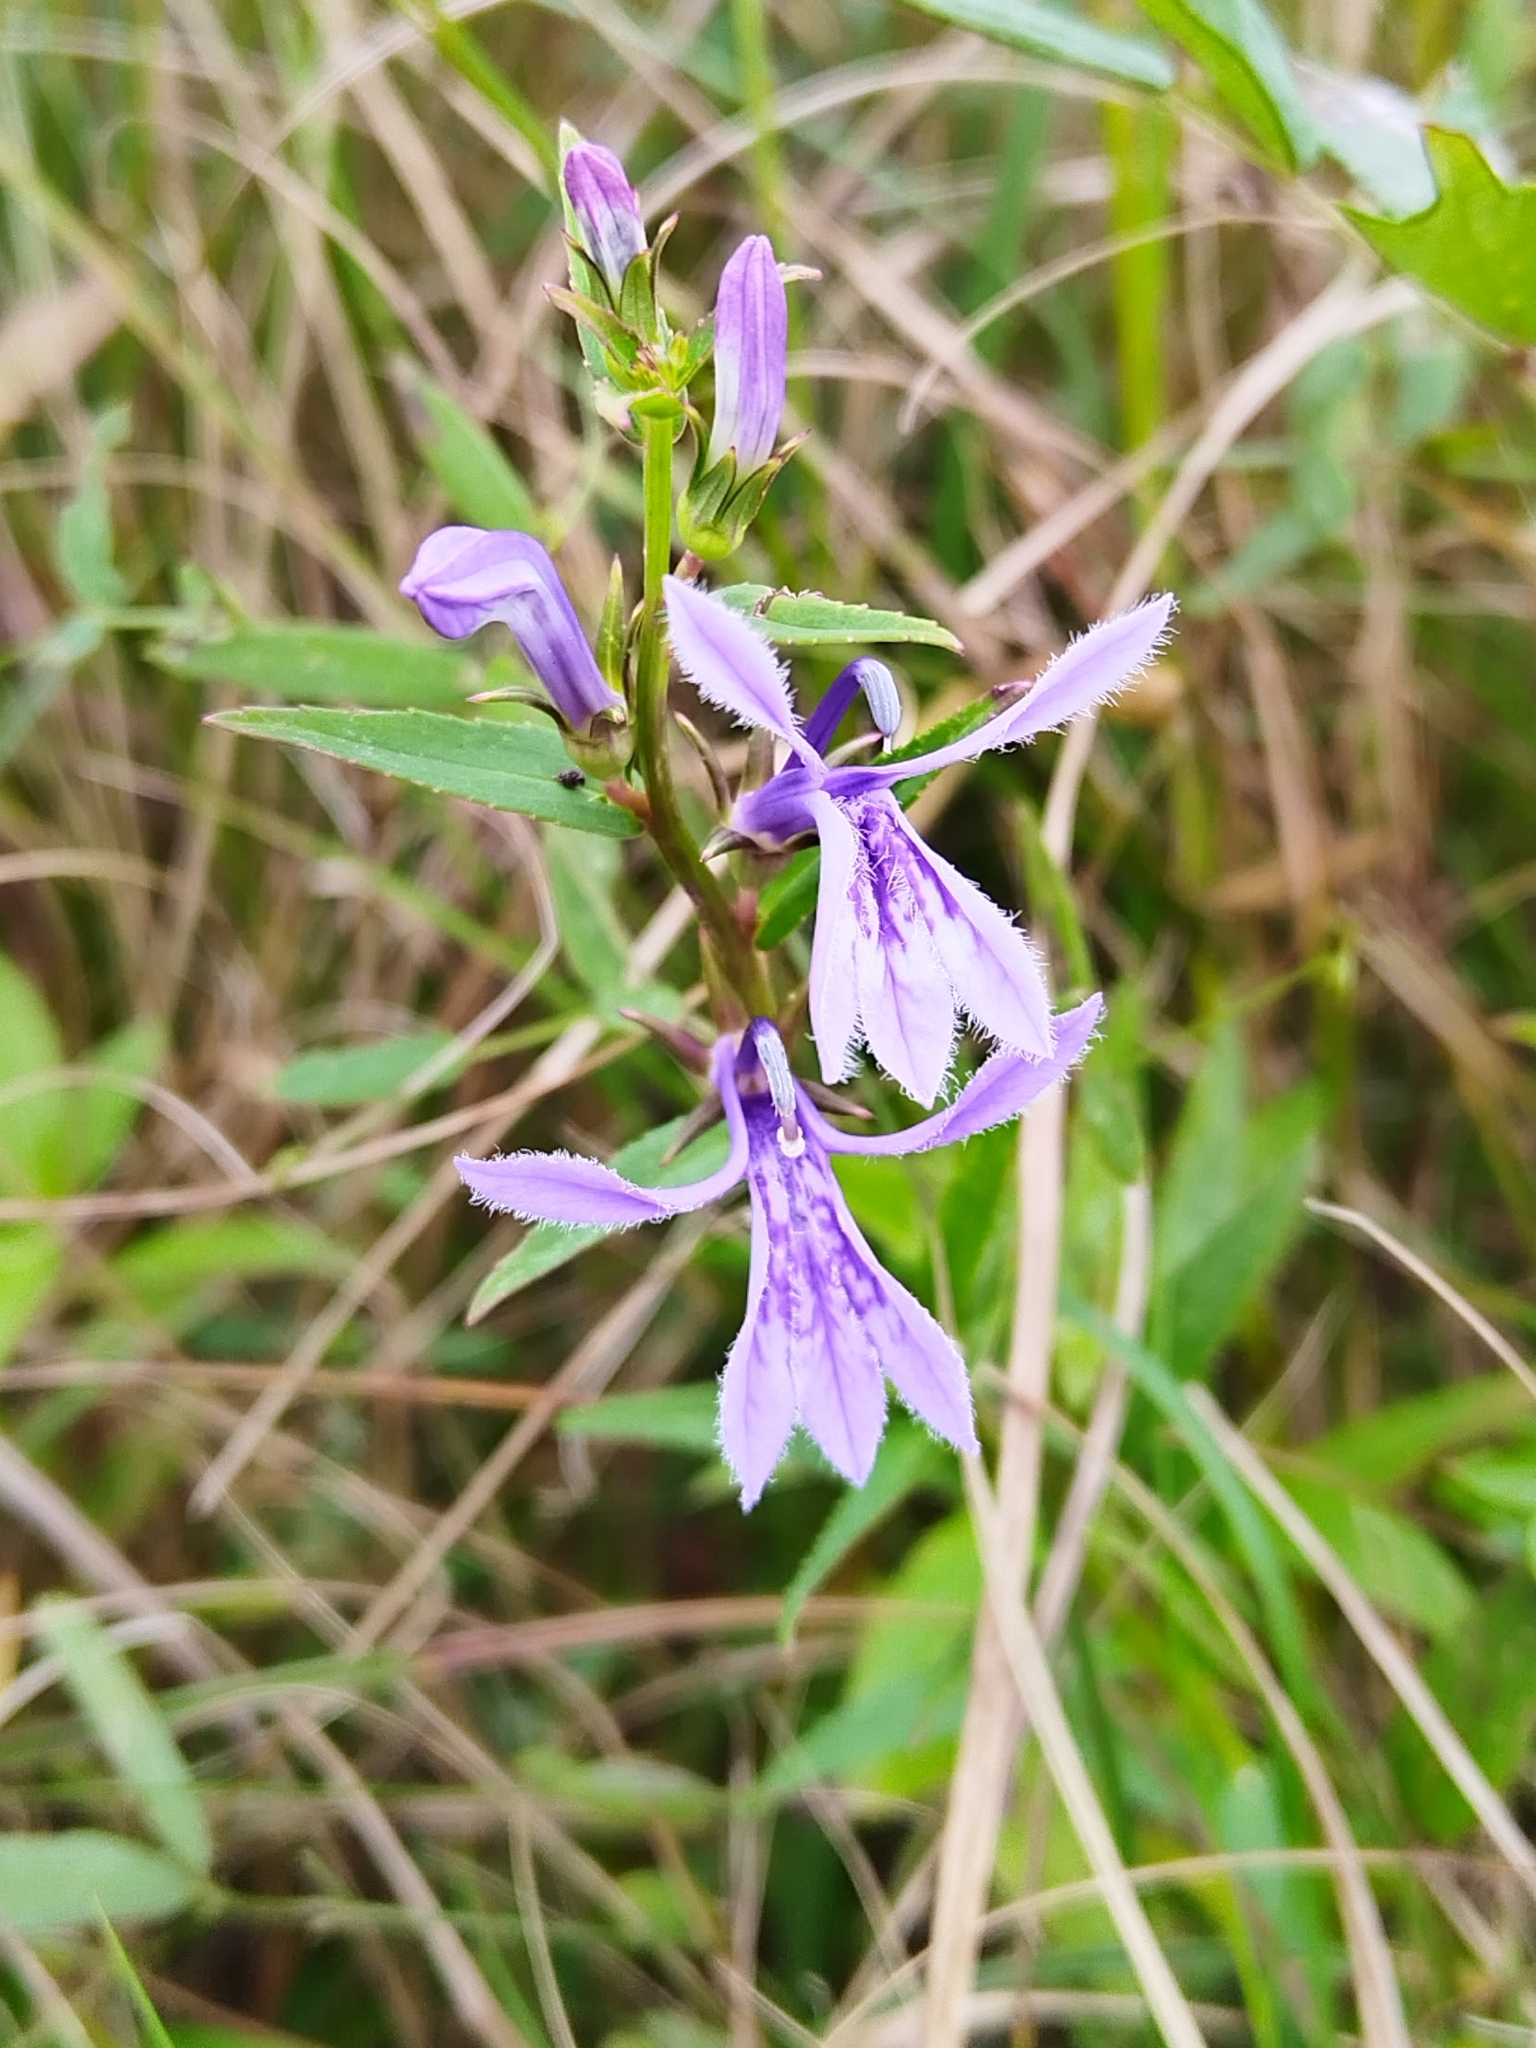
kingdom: Plantae
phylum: Tracheophyta
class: Magnoliopsida
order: Asterales
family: Campanulaceae
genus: Lobelia
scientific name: Lobelia sessilifolia
